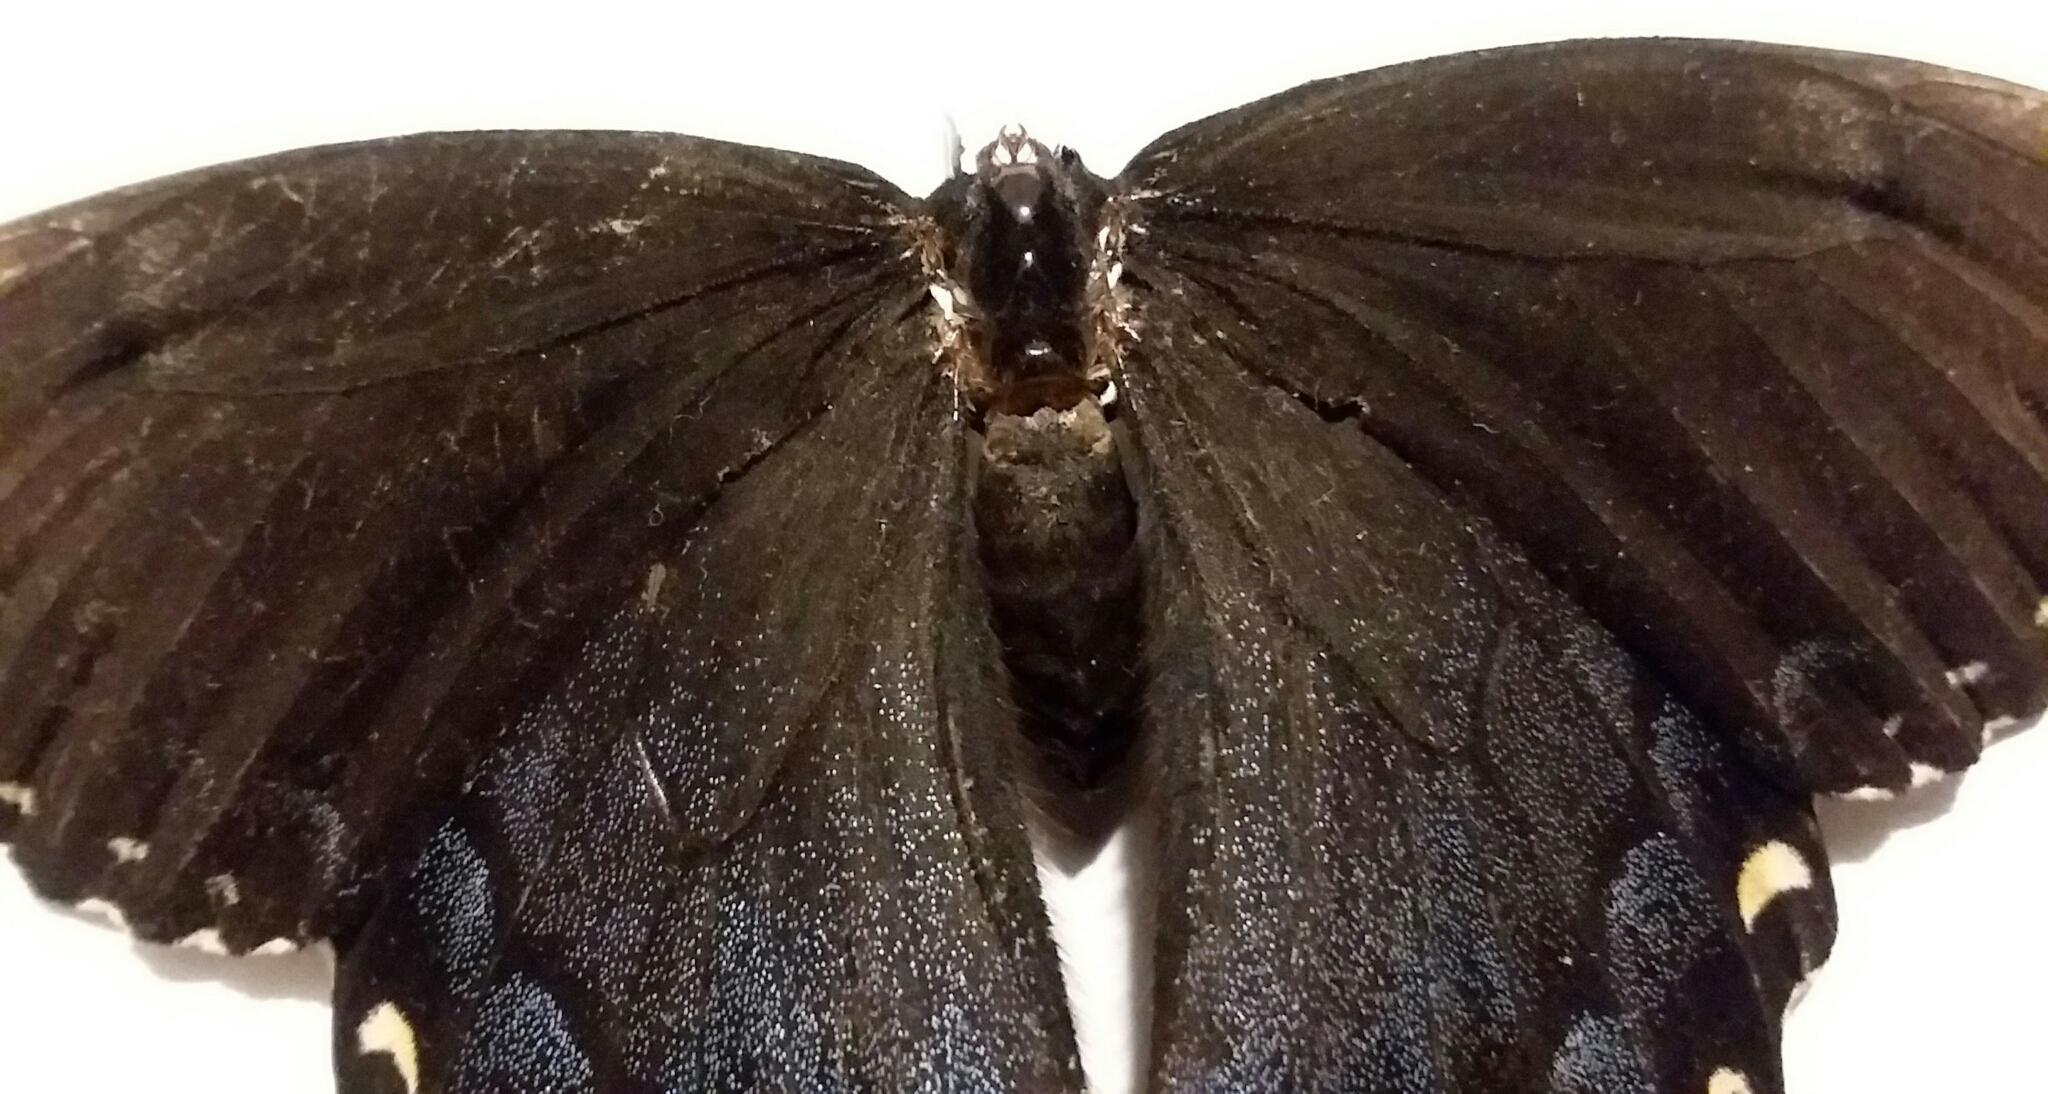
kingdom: Animalia
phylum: Arthropoda
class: Insecta
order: Lepidoptera
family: Papilionidae
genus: Papilio
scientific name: Papilio glaucus
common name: Tiger swallowtail
